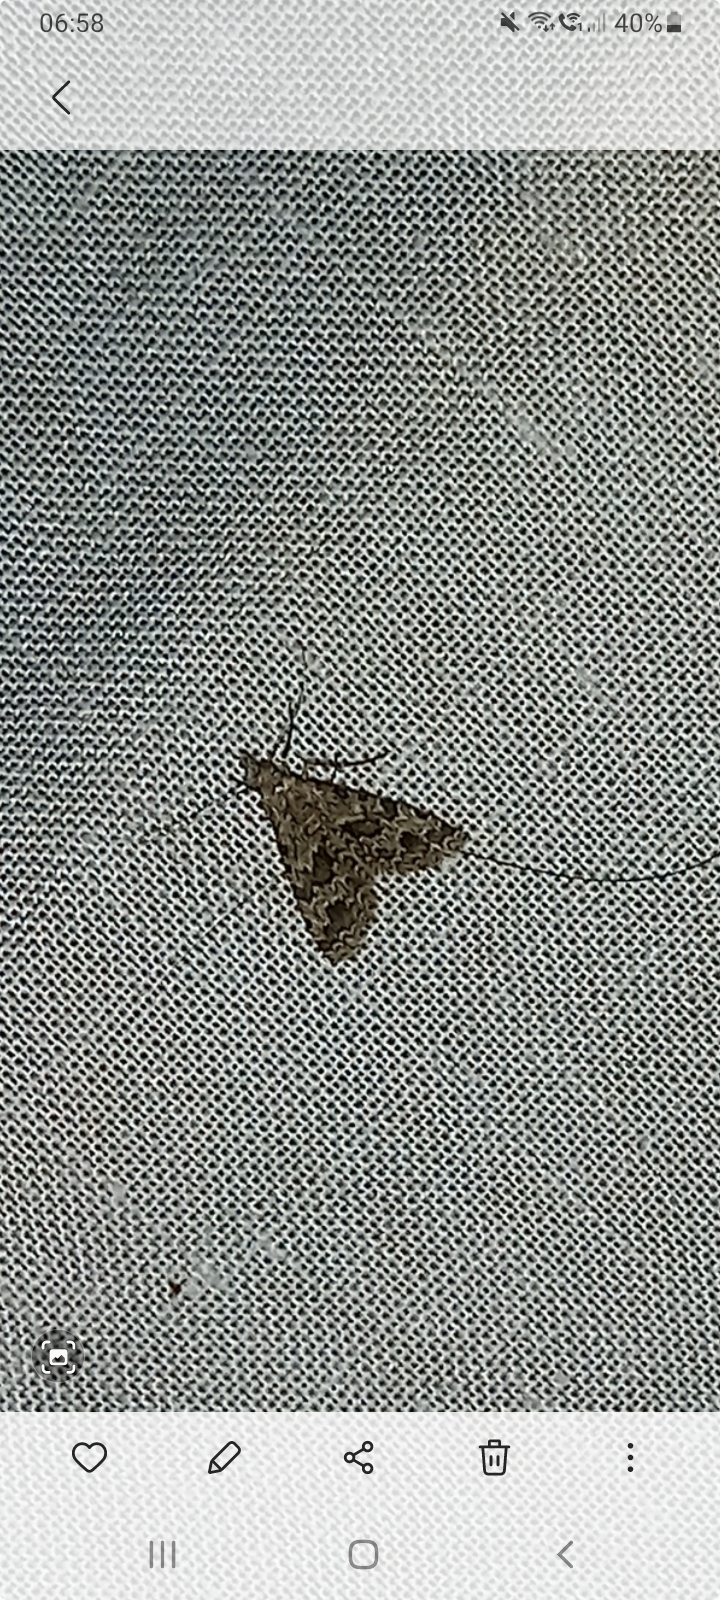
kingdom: Animalia
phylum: Arthropoda
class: Insecta
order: Lepidoptera
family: Alucitidae
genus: Alucita
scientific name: Alucita hexadactyla
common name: Twenty-plume moth
